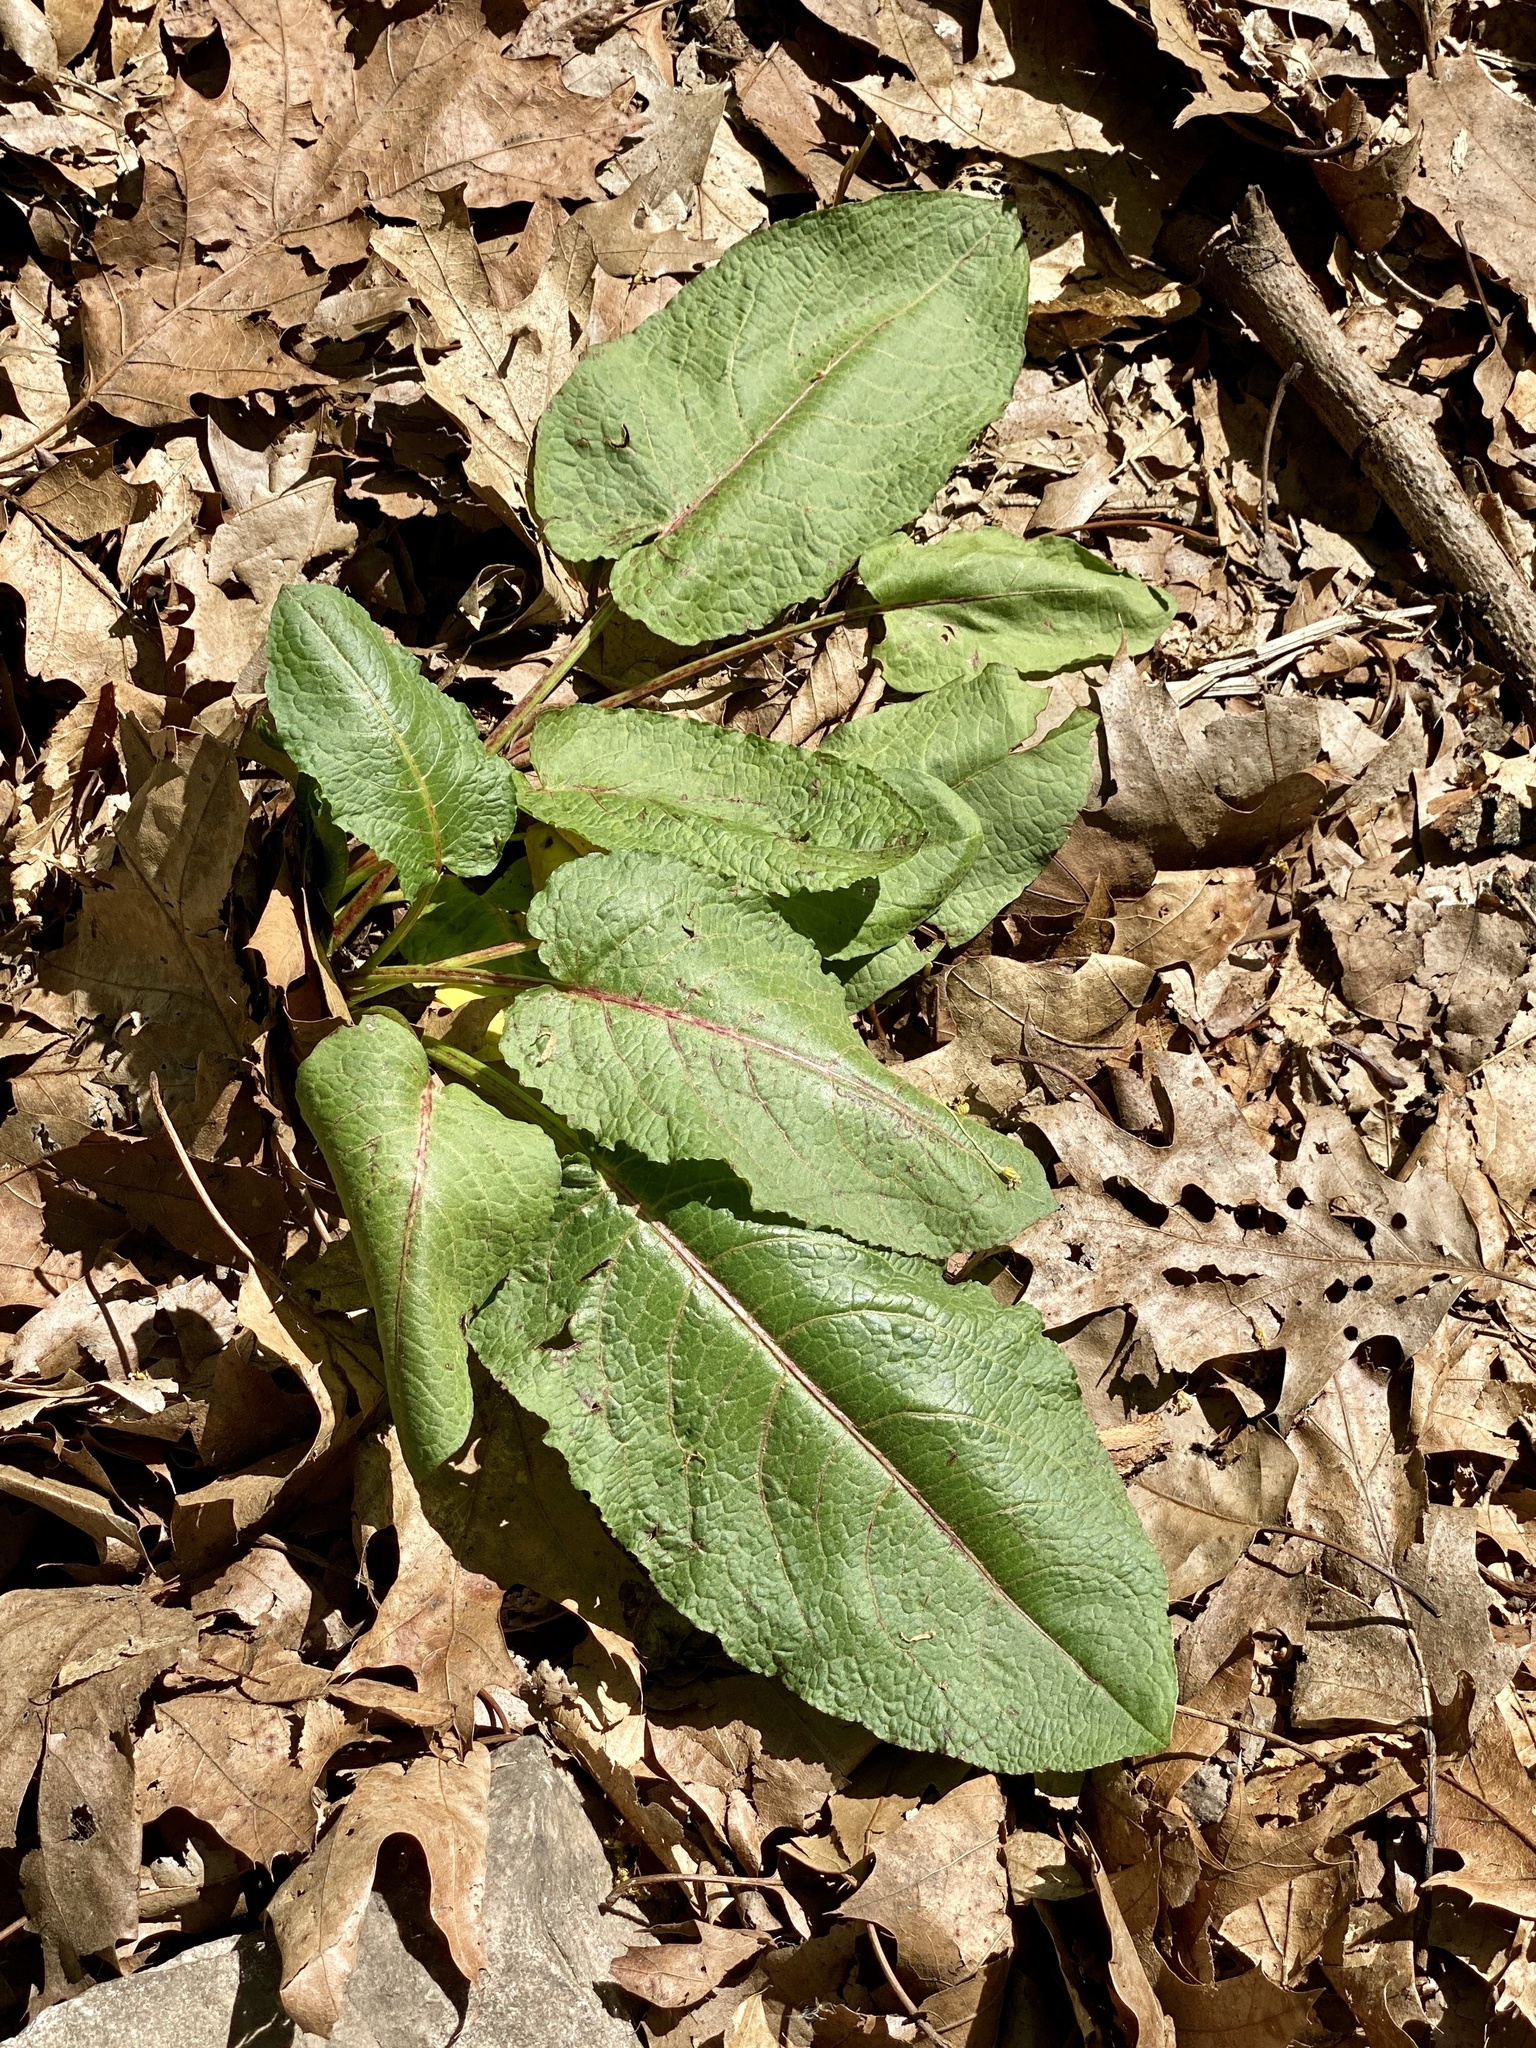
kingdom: Plantae
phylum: Tracheophyta
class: Magnoliopsida
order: Caryophyllales
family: Polygonaceae
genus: Rumex
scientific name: Rumex obtusifolius
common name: Bitter dock
